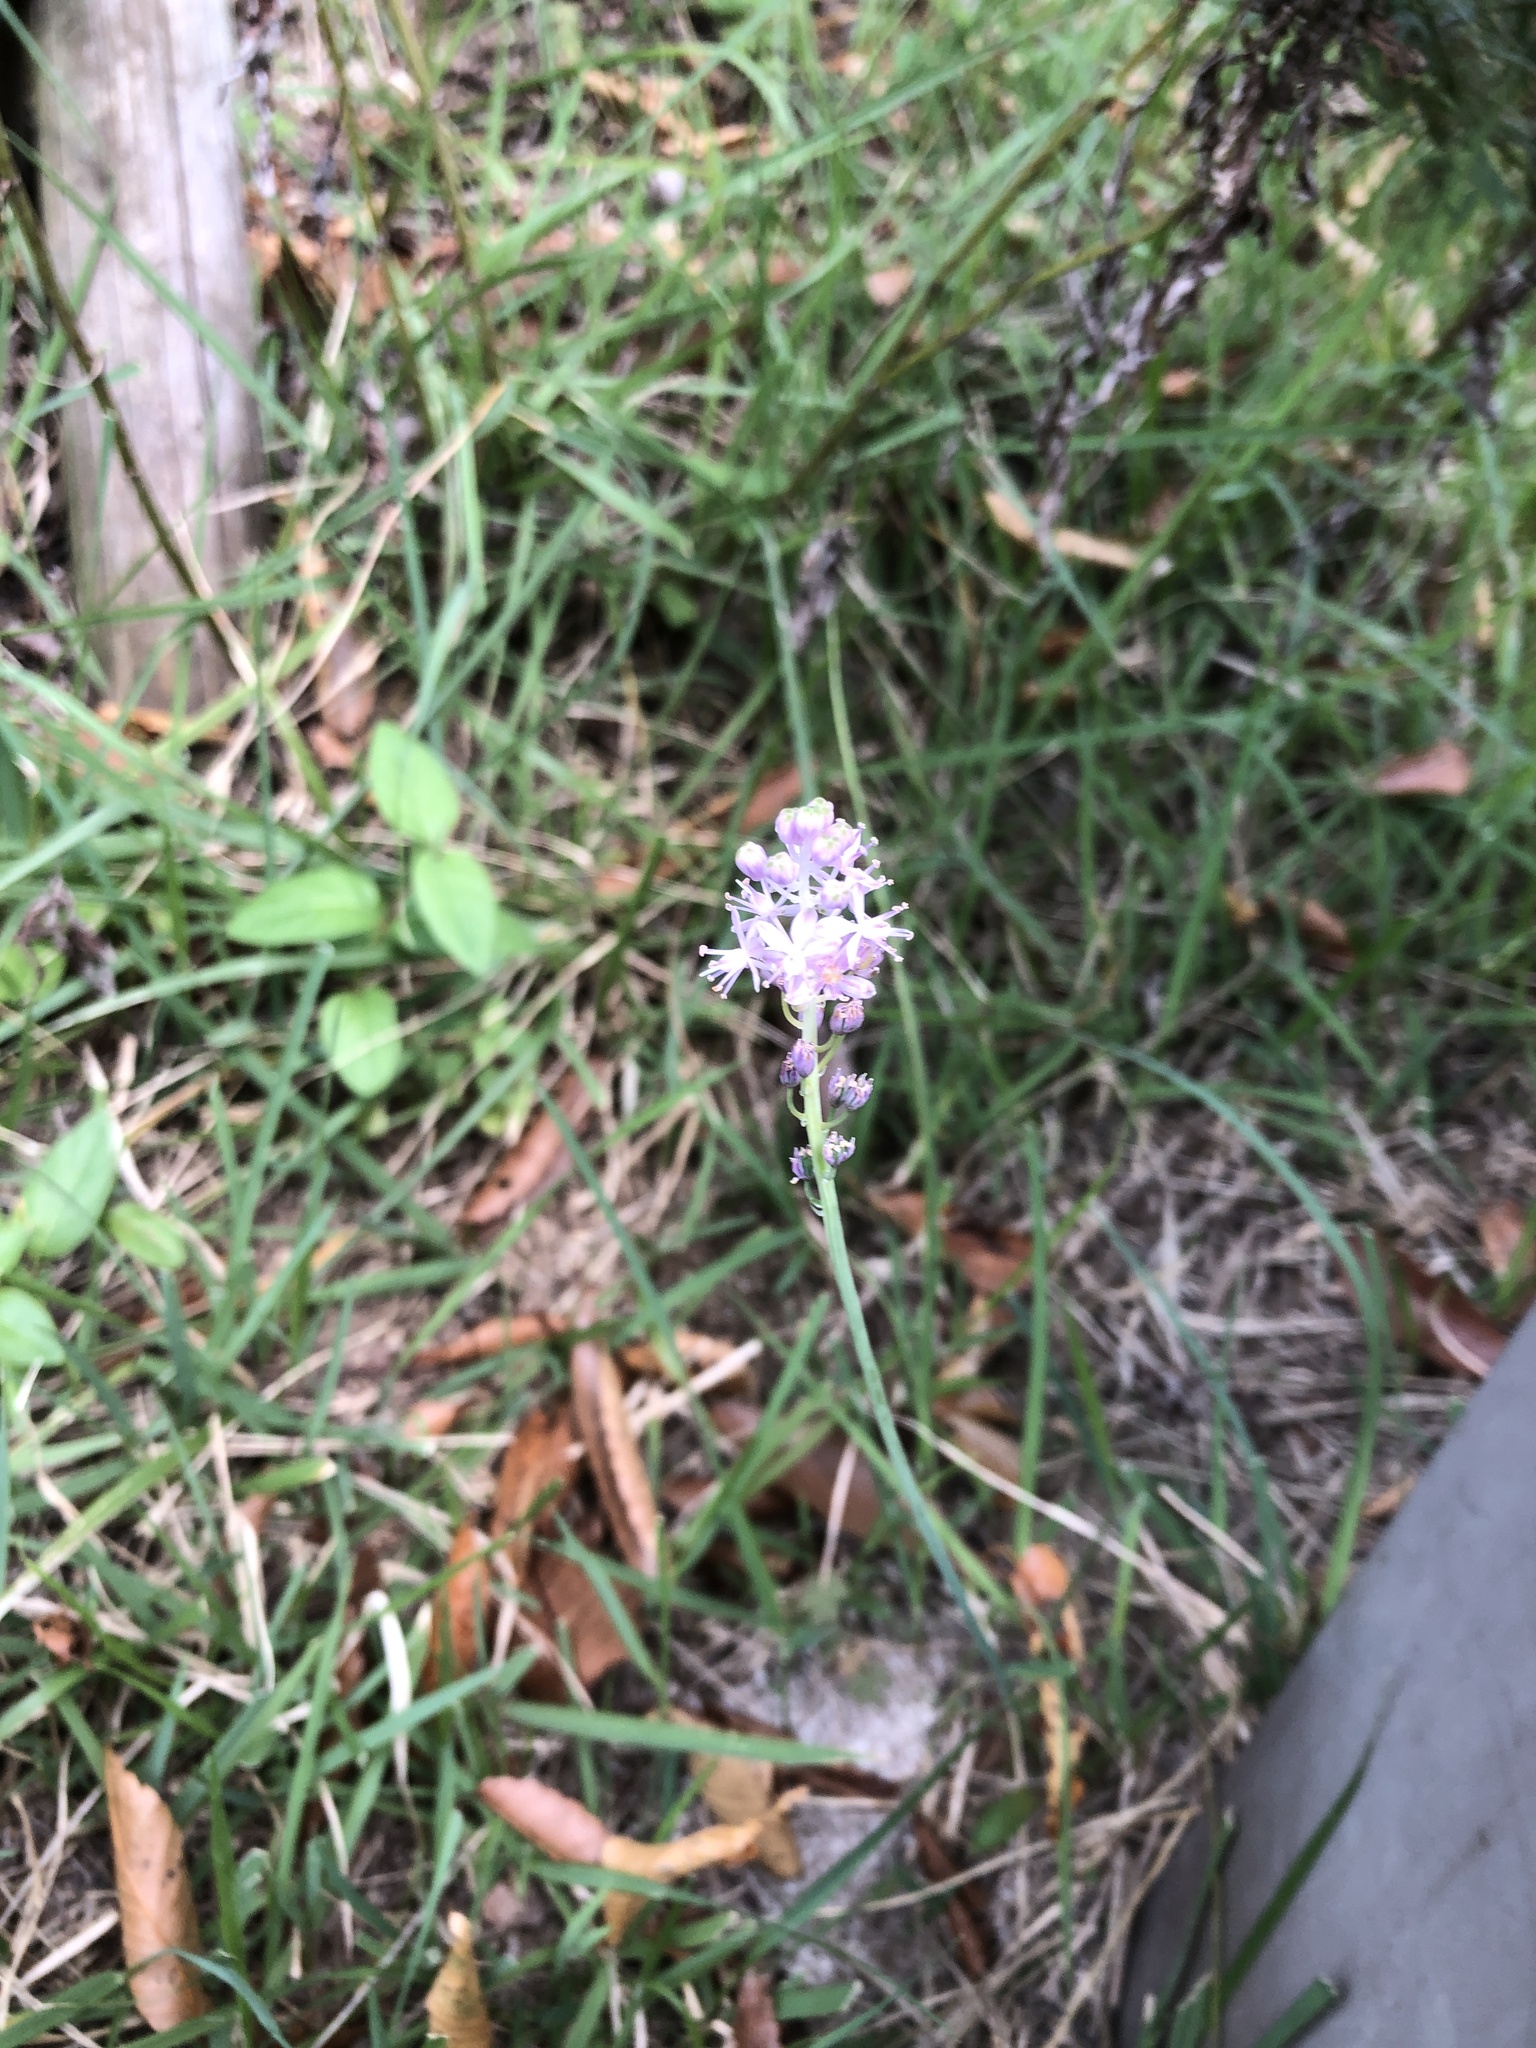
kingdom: Plantae
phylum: Tracheophyta
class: Liliopsida
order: Asparagales
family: Asparagaceae
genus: Barnardia
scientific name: Barnardia japonica
